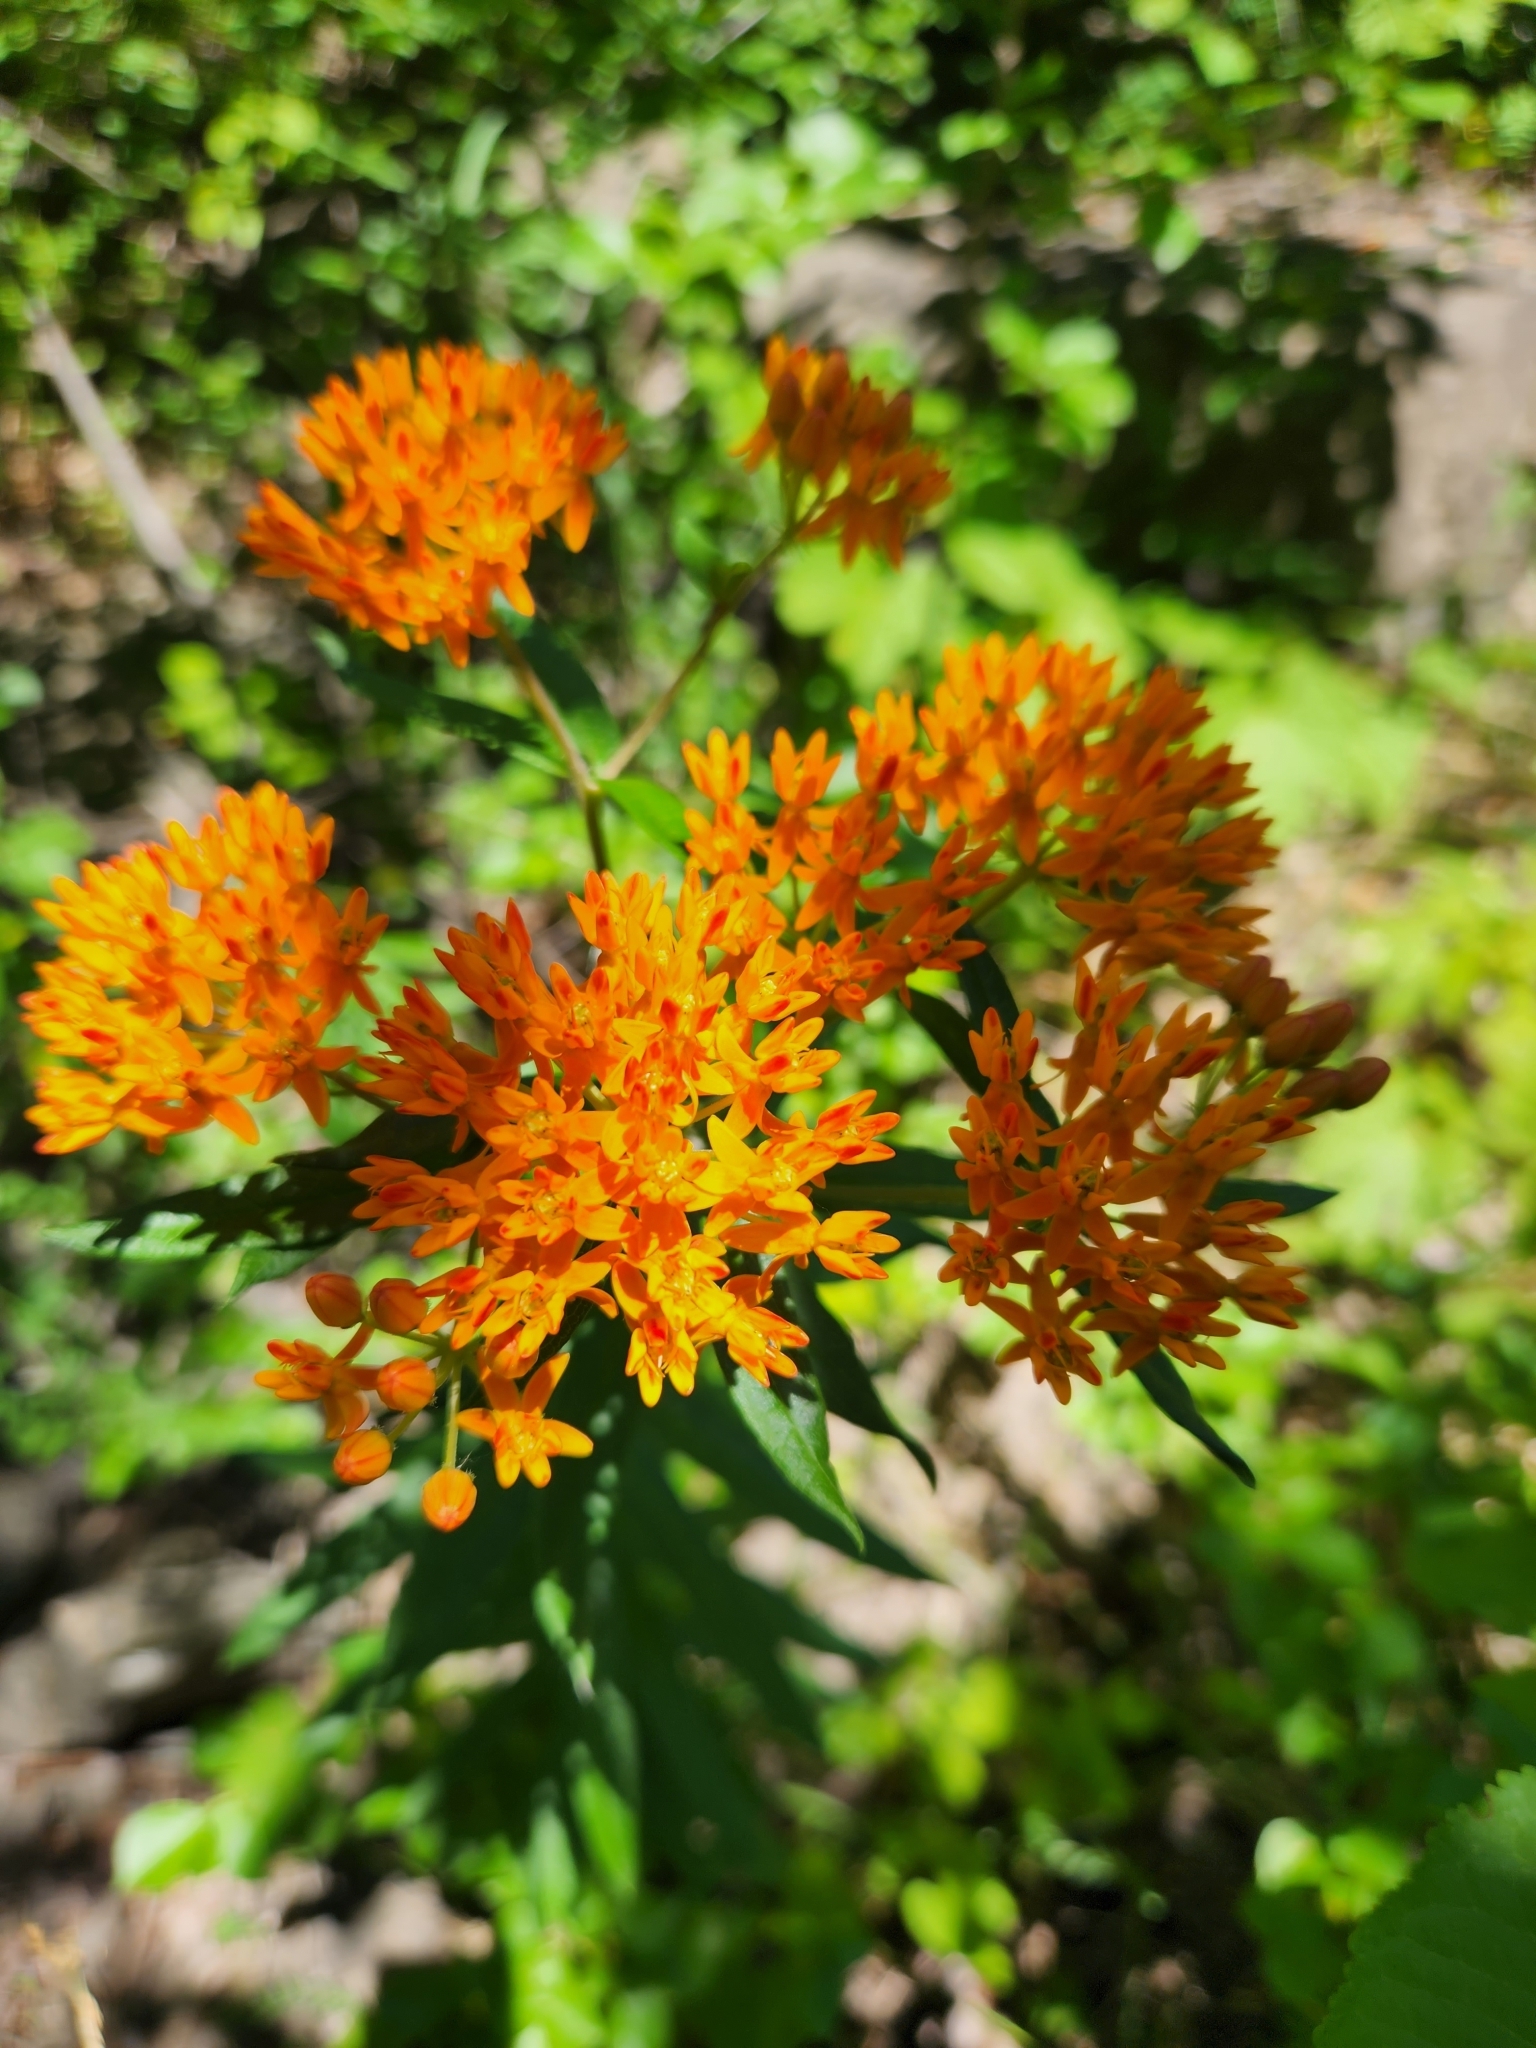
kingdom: Plantae
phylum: Tracheophyta
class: Magnoliopsida
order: Gentianales
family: Apocynaceae
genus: Asclepias
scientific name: Asclepias tuberosa
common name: Butterfly milkweed
